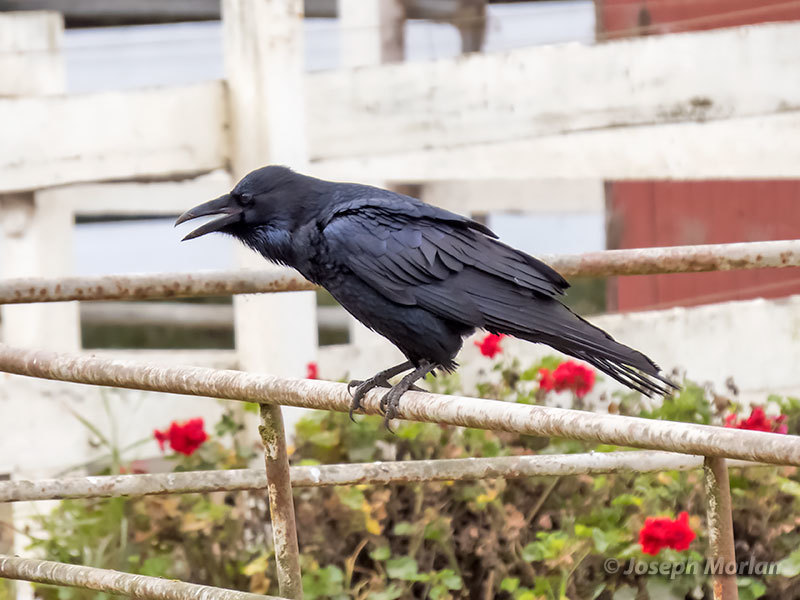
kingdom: Animalia
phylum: Chordata
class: Aves
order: Passeriformes
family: Corvidae
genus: Corvus
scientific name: Corvus corax
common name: Common raven
